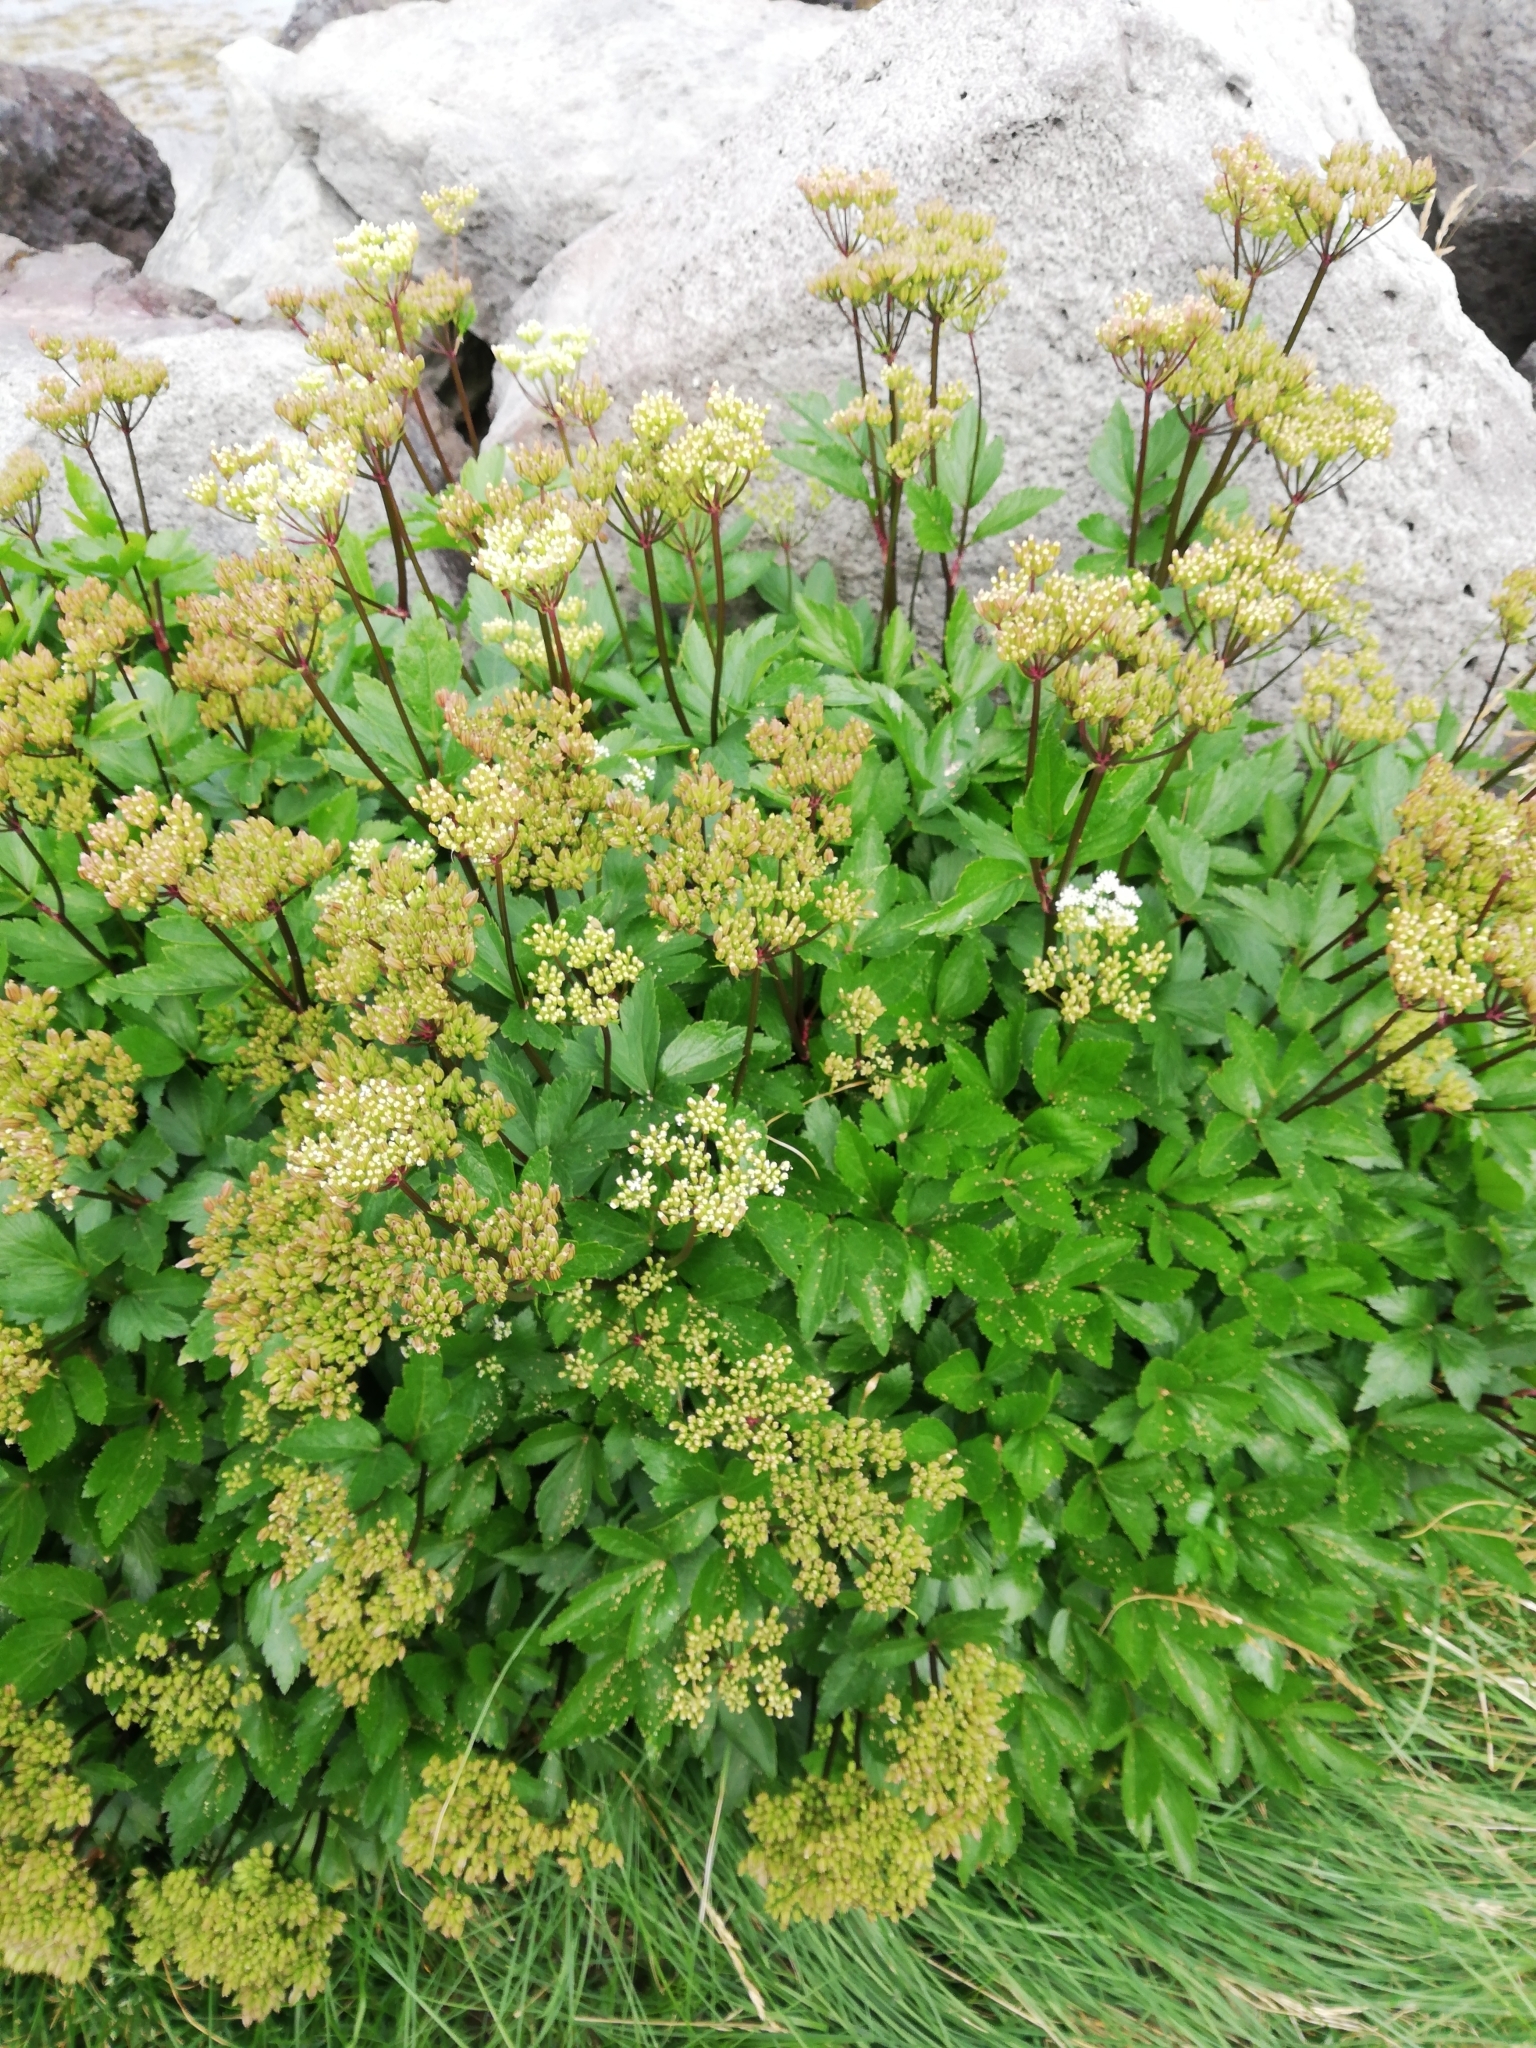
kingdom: Plantae
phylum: Tracheophyta
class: Magnoliopsida
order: Apiales
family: Apiaceae
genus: Ligusticum
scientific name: Ligusticum scothicum
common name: Beach lovage
